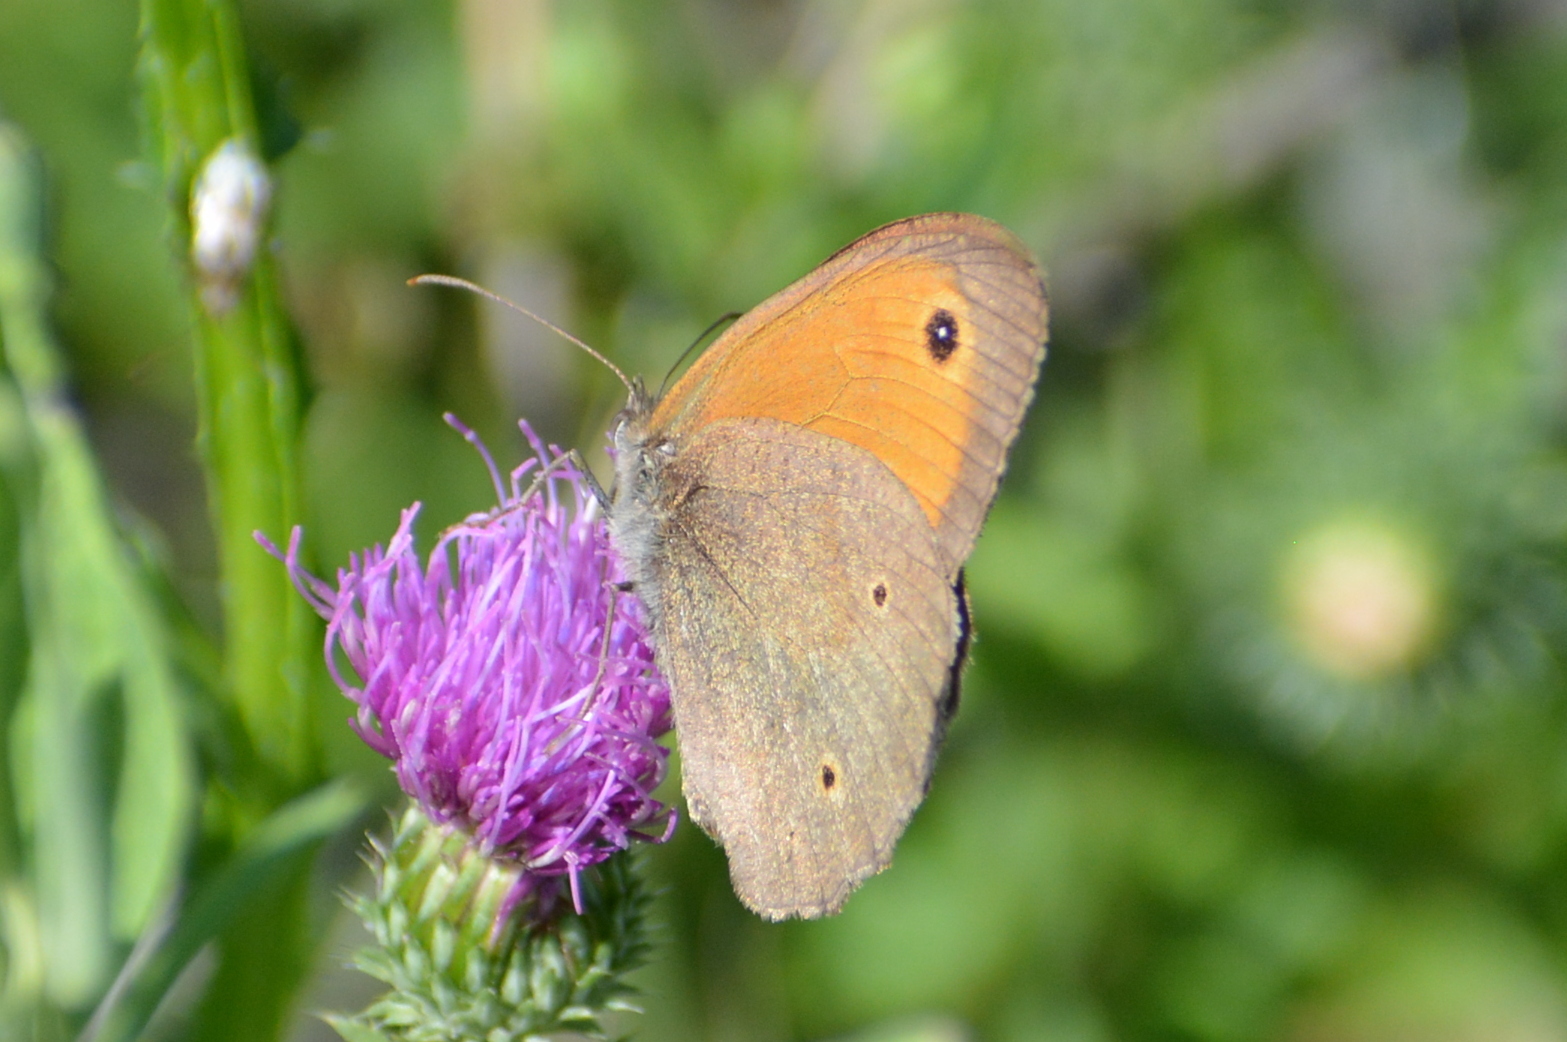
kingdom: Animalia
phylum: Arthropoda
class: Insecta
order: Lepidoptera
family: Nymphalidae
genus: Maniola
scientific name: Maniola jurtina
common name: Meadow brown
